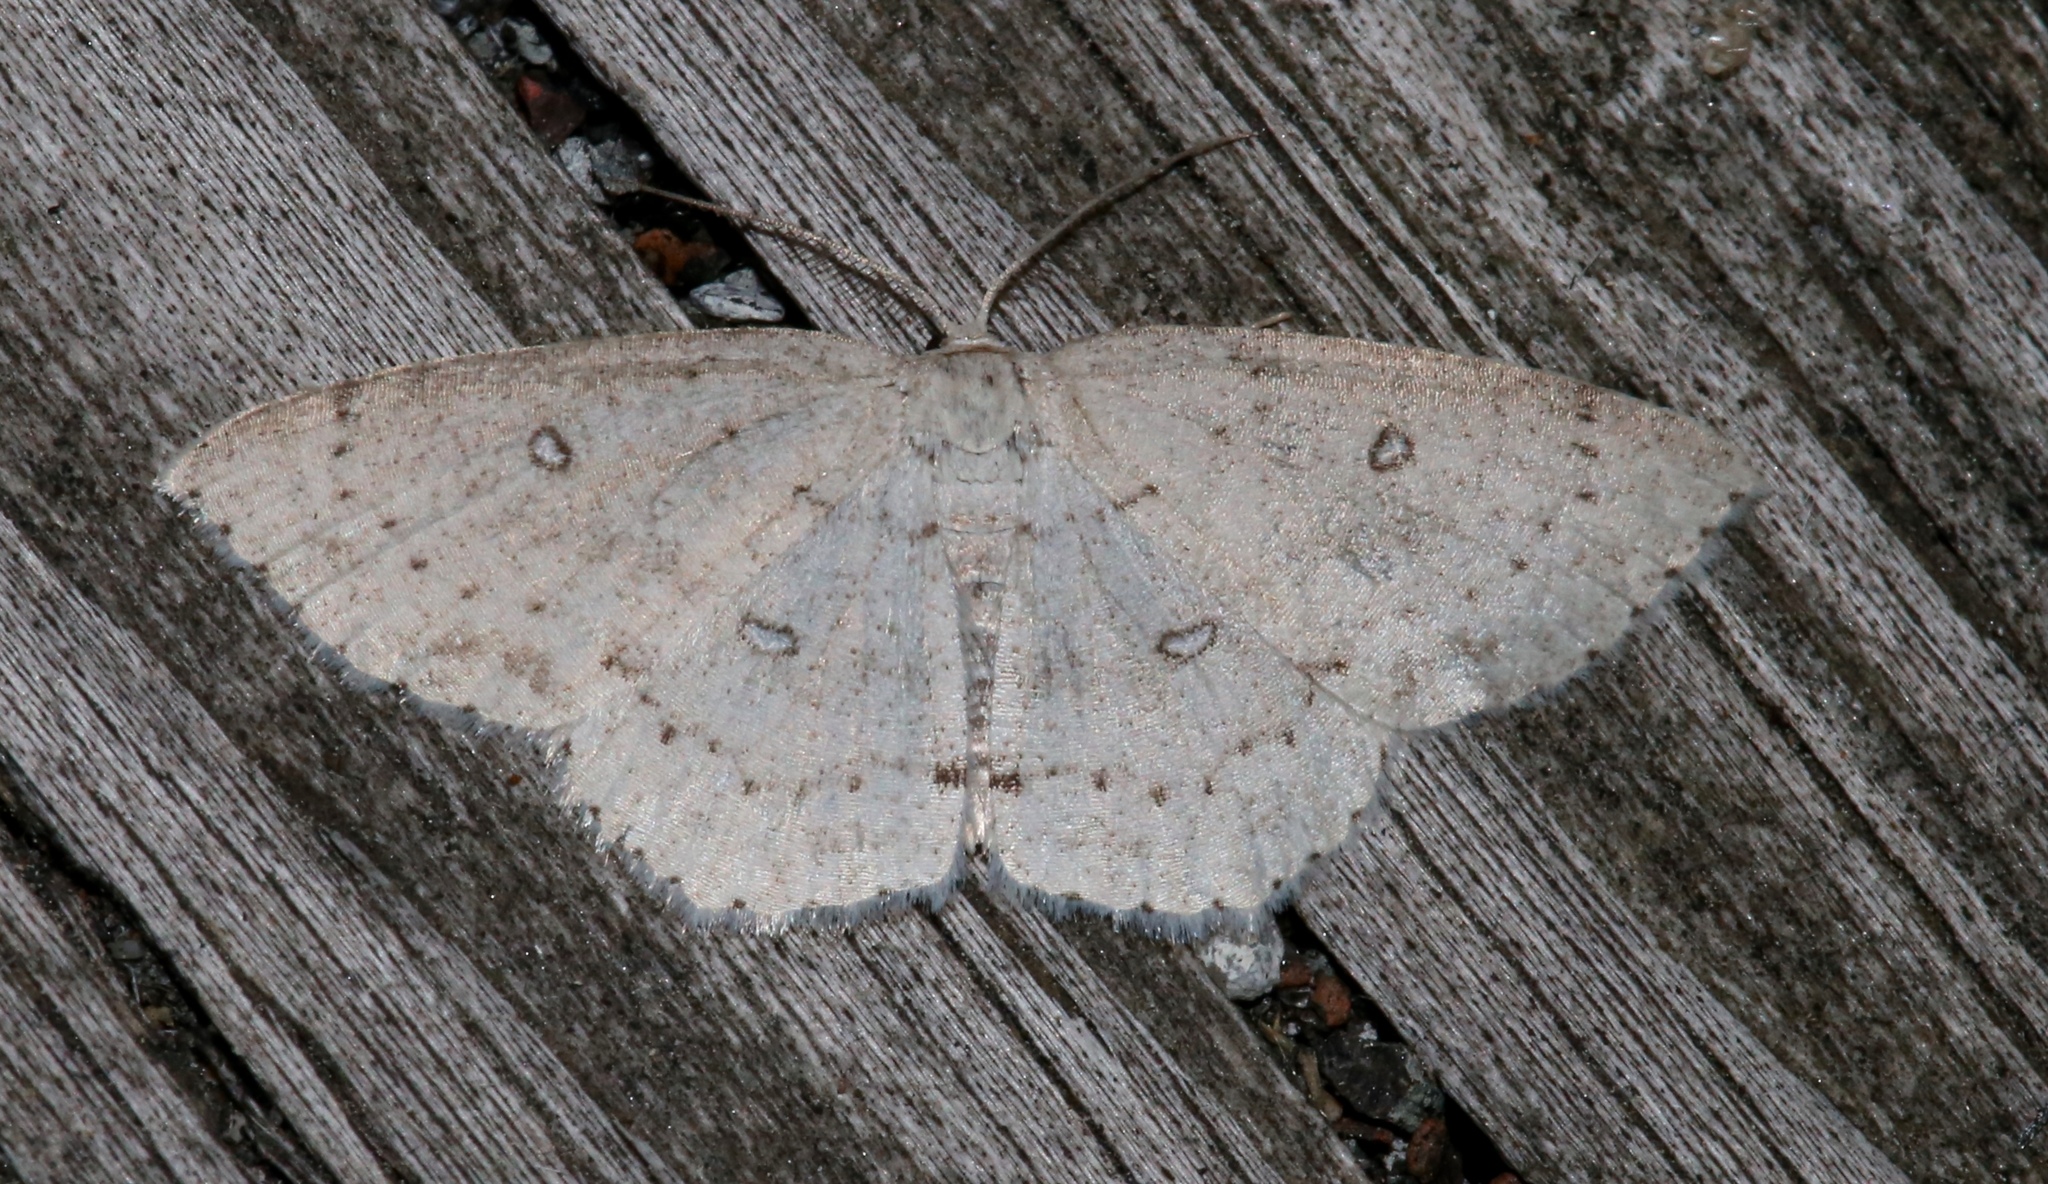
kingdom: Animalia
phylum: Arthropoda
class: Insecta
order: Lepidoptera
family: Geometridae
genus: Cyclophora
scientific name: Cyclophora pendulinaria
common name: Sweet fern geometer
